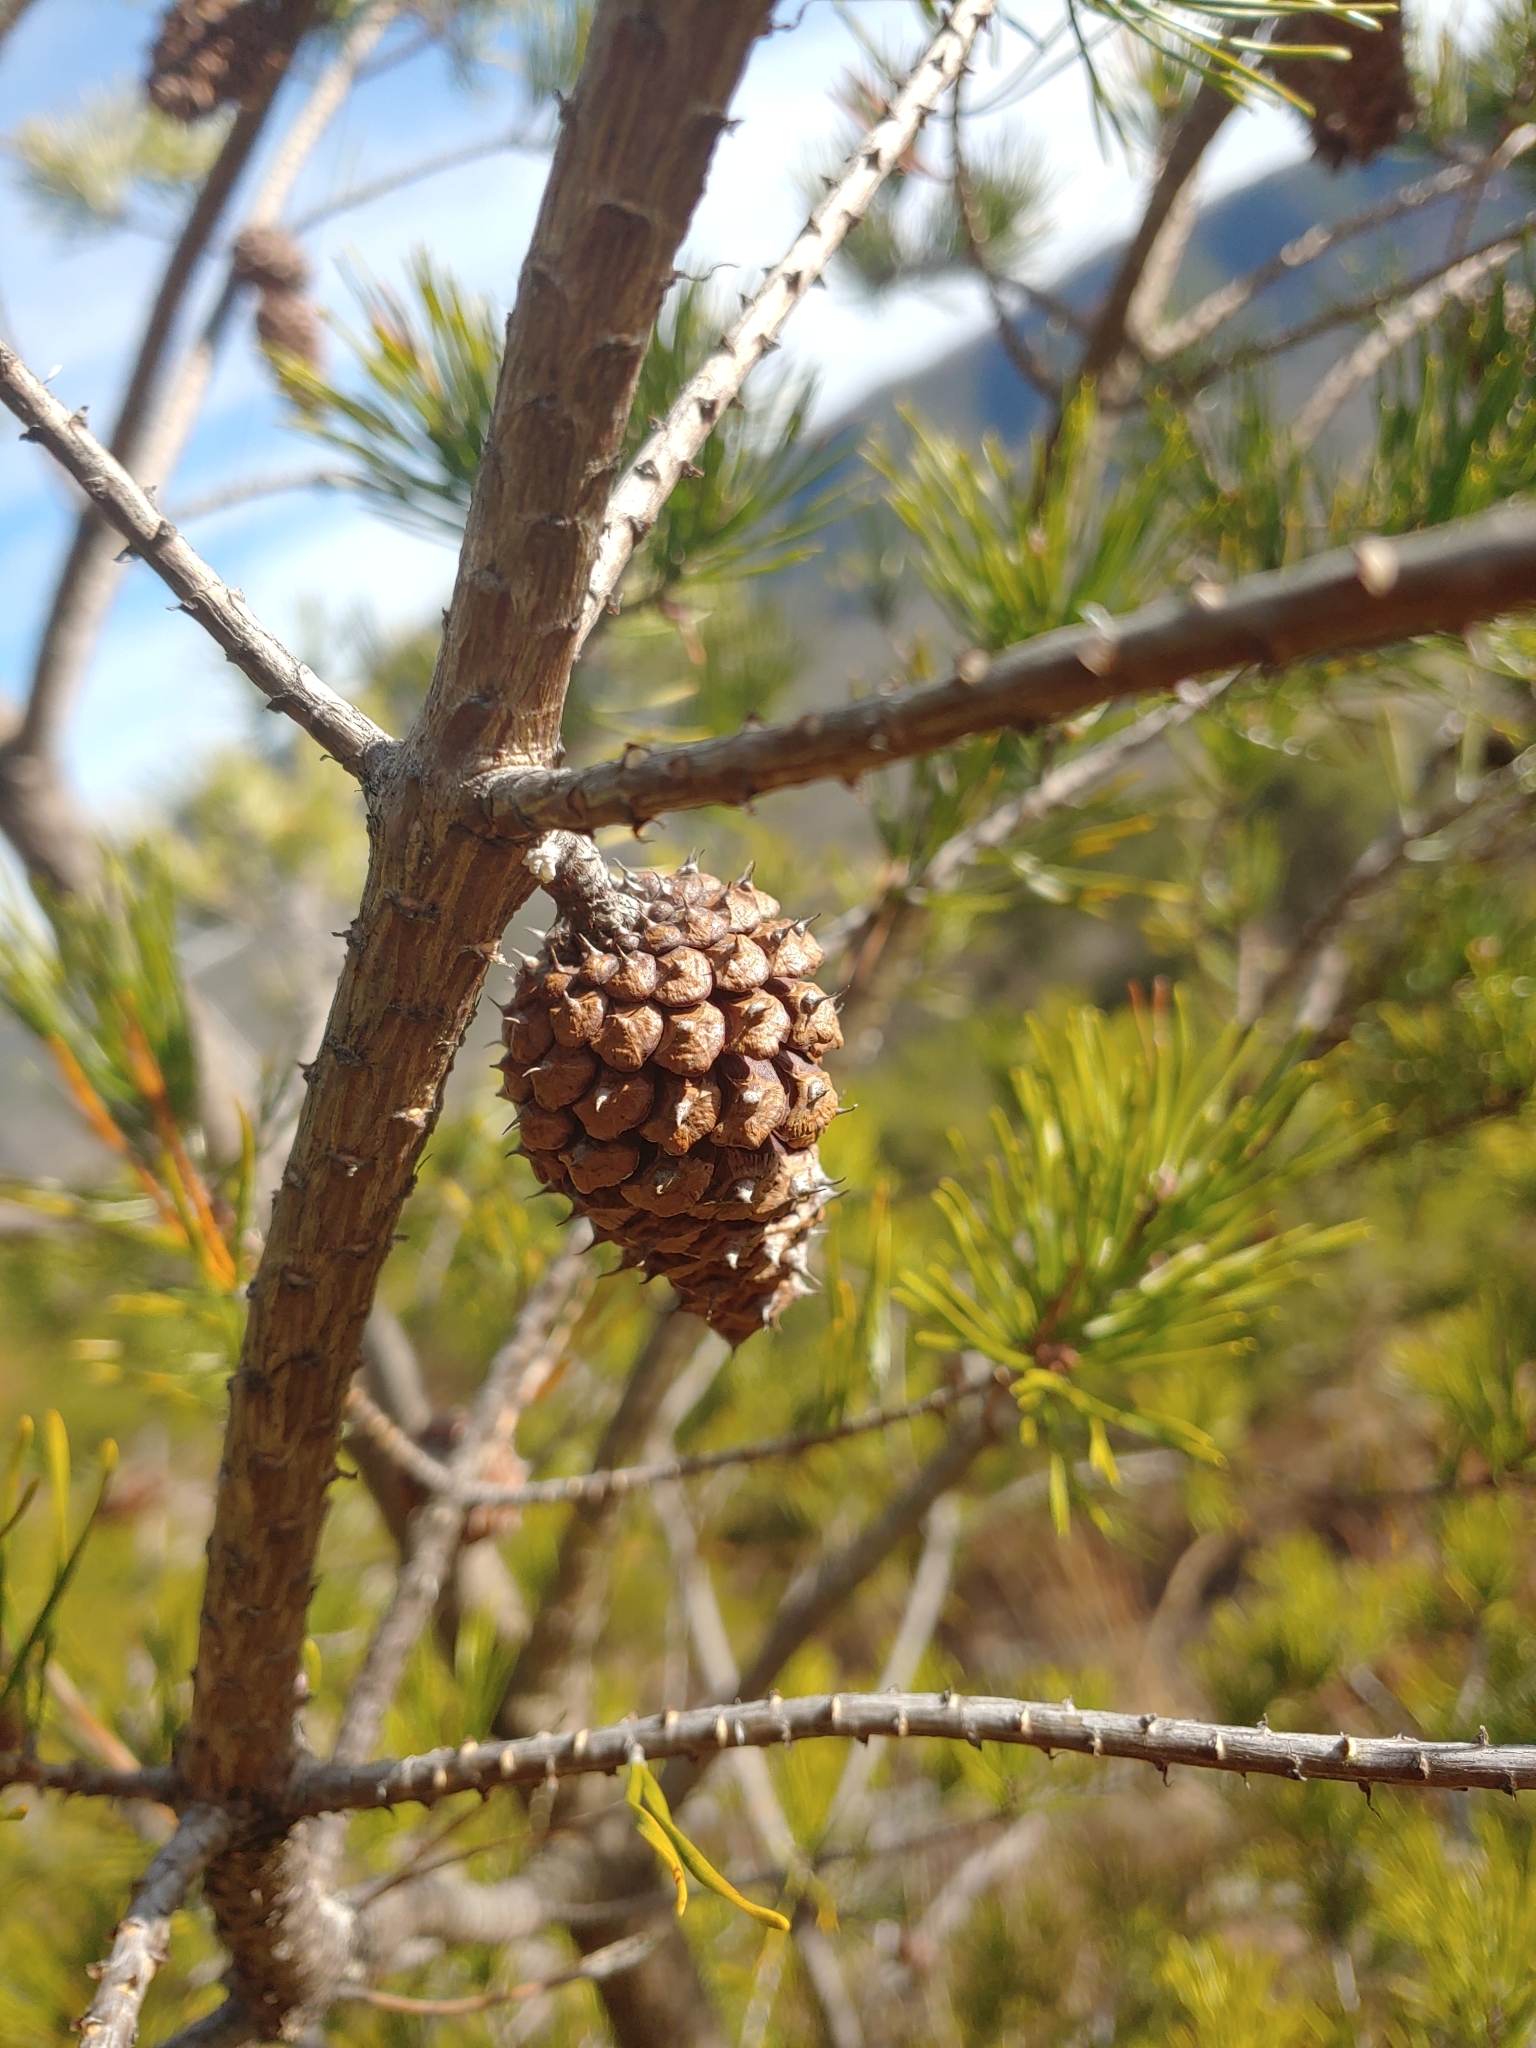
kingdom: Plantae
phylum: Tracheophyta
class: Pinopsida
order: Pinales
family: Pinaceae
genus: Pinus
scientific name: Pinus pungens
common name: Hickory pine
